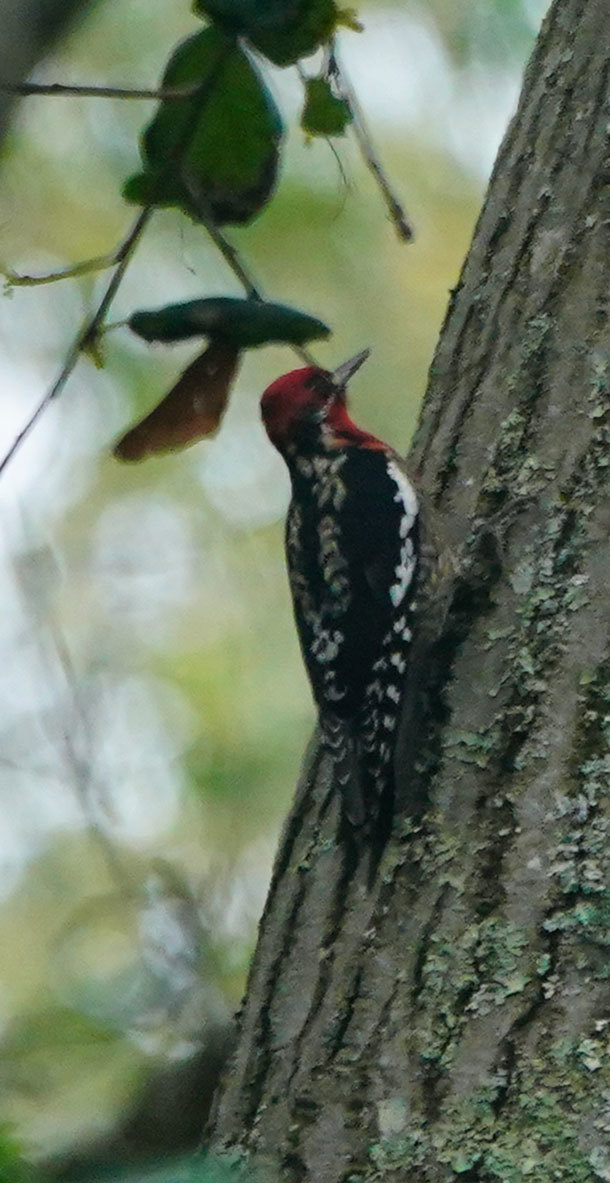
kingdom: Animalia
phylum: Chordata
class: Aves
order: Piciformes
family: Picidae
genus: Sphyrapicus
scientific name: Sphyrapicus ruber
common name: Red-breasted sapsucker
